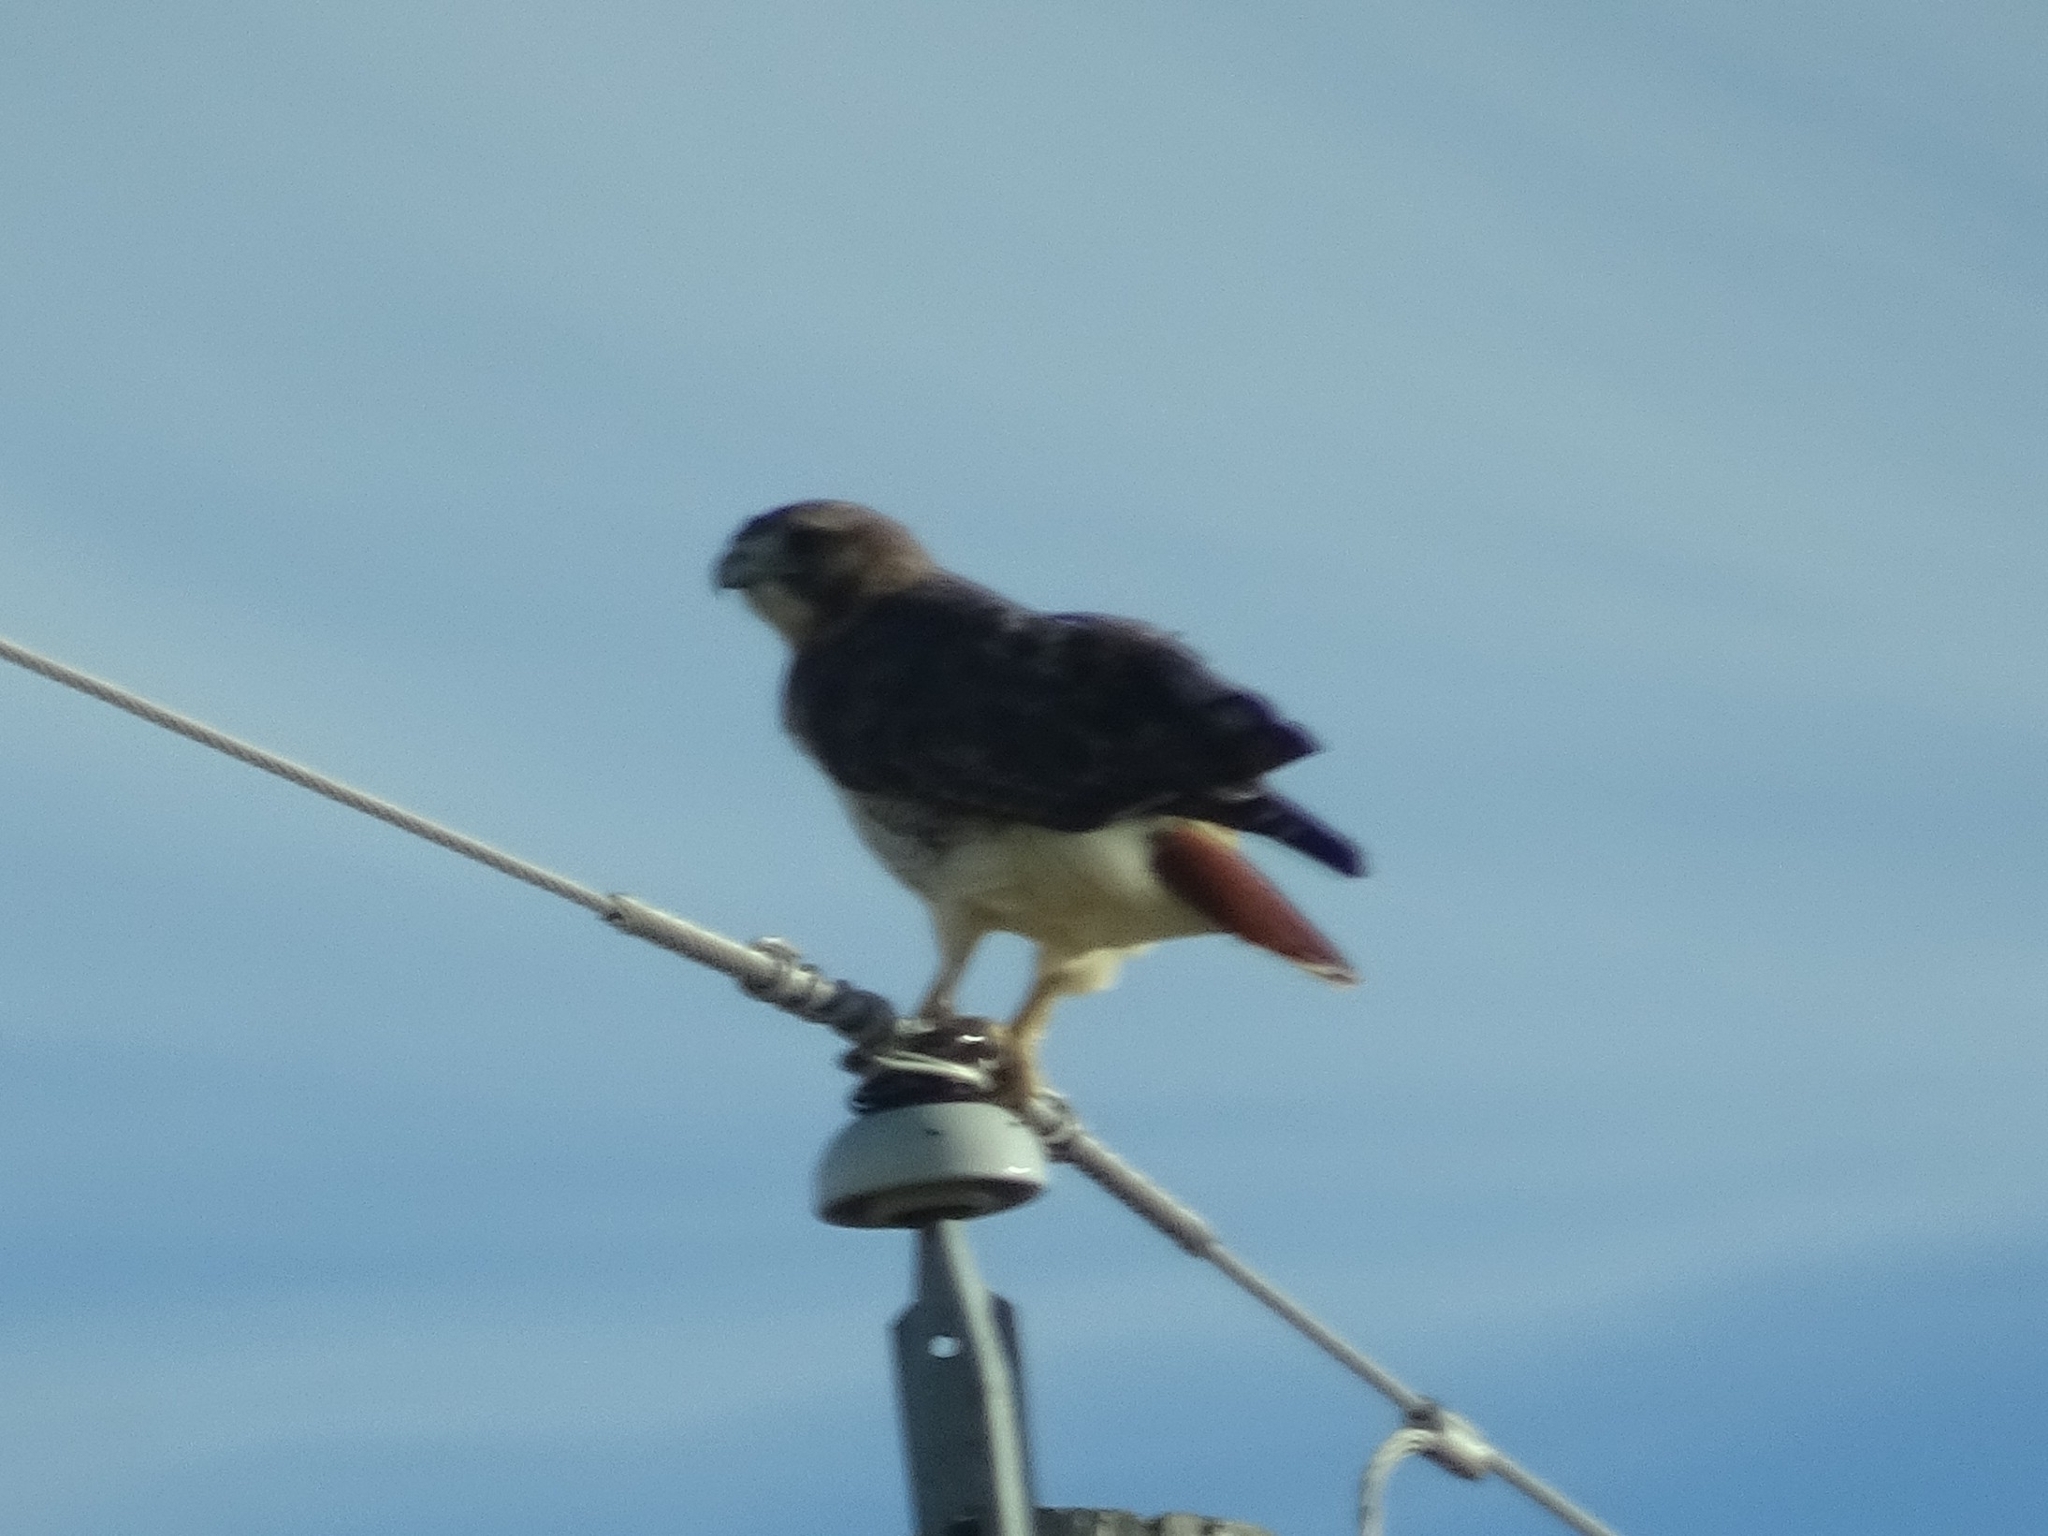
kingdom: Animalia
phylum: Chordata
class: Aves
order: Accipitriformes
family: Accipitridae
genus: Buteo
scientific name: Buteo jamaicensis
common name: Red-tailed hawk
